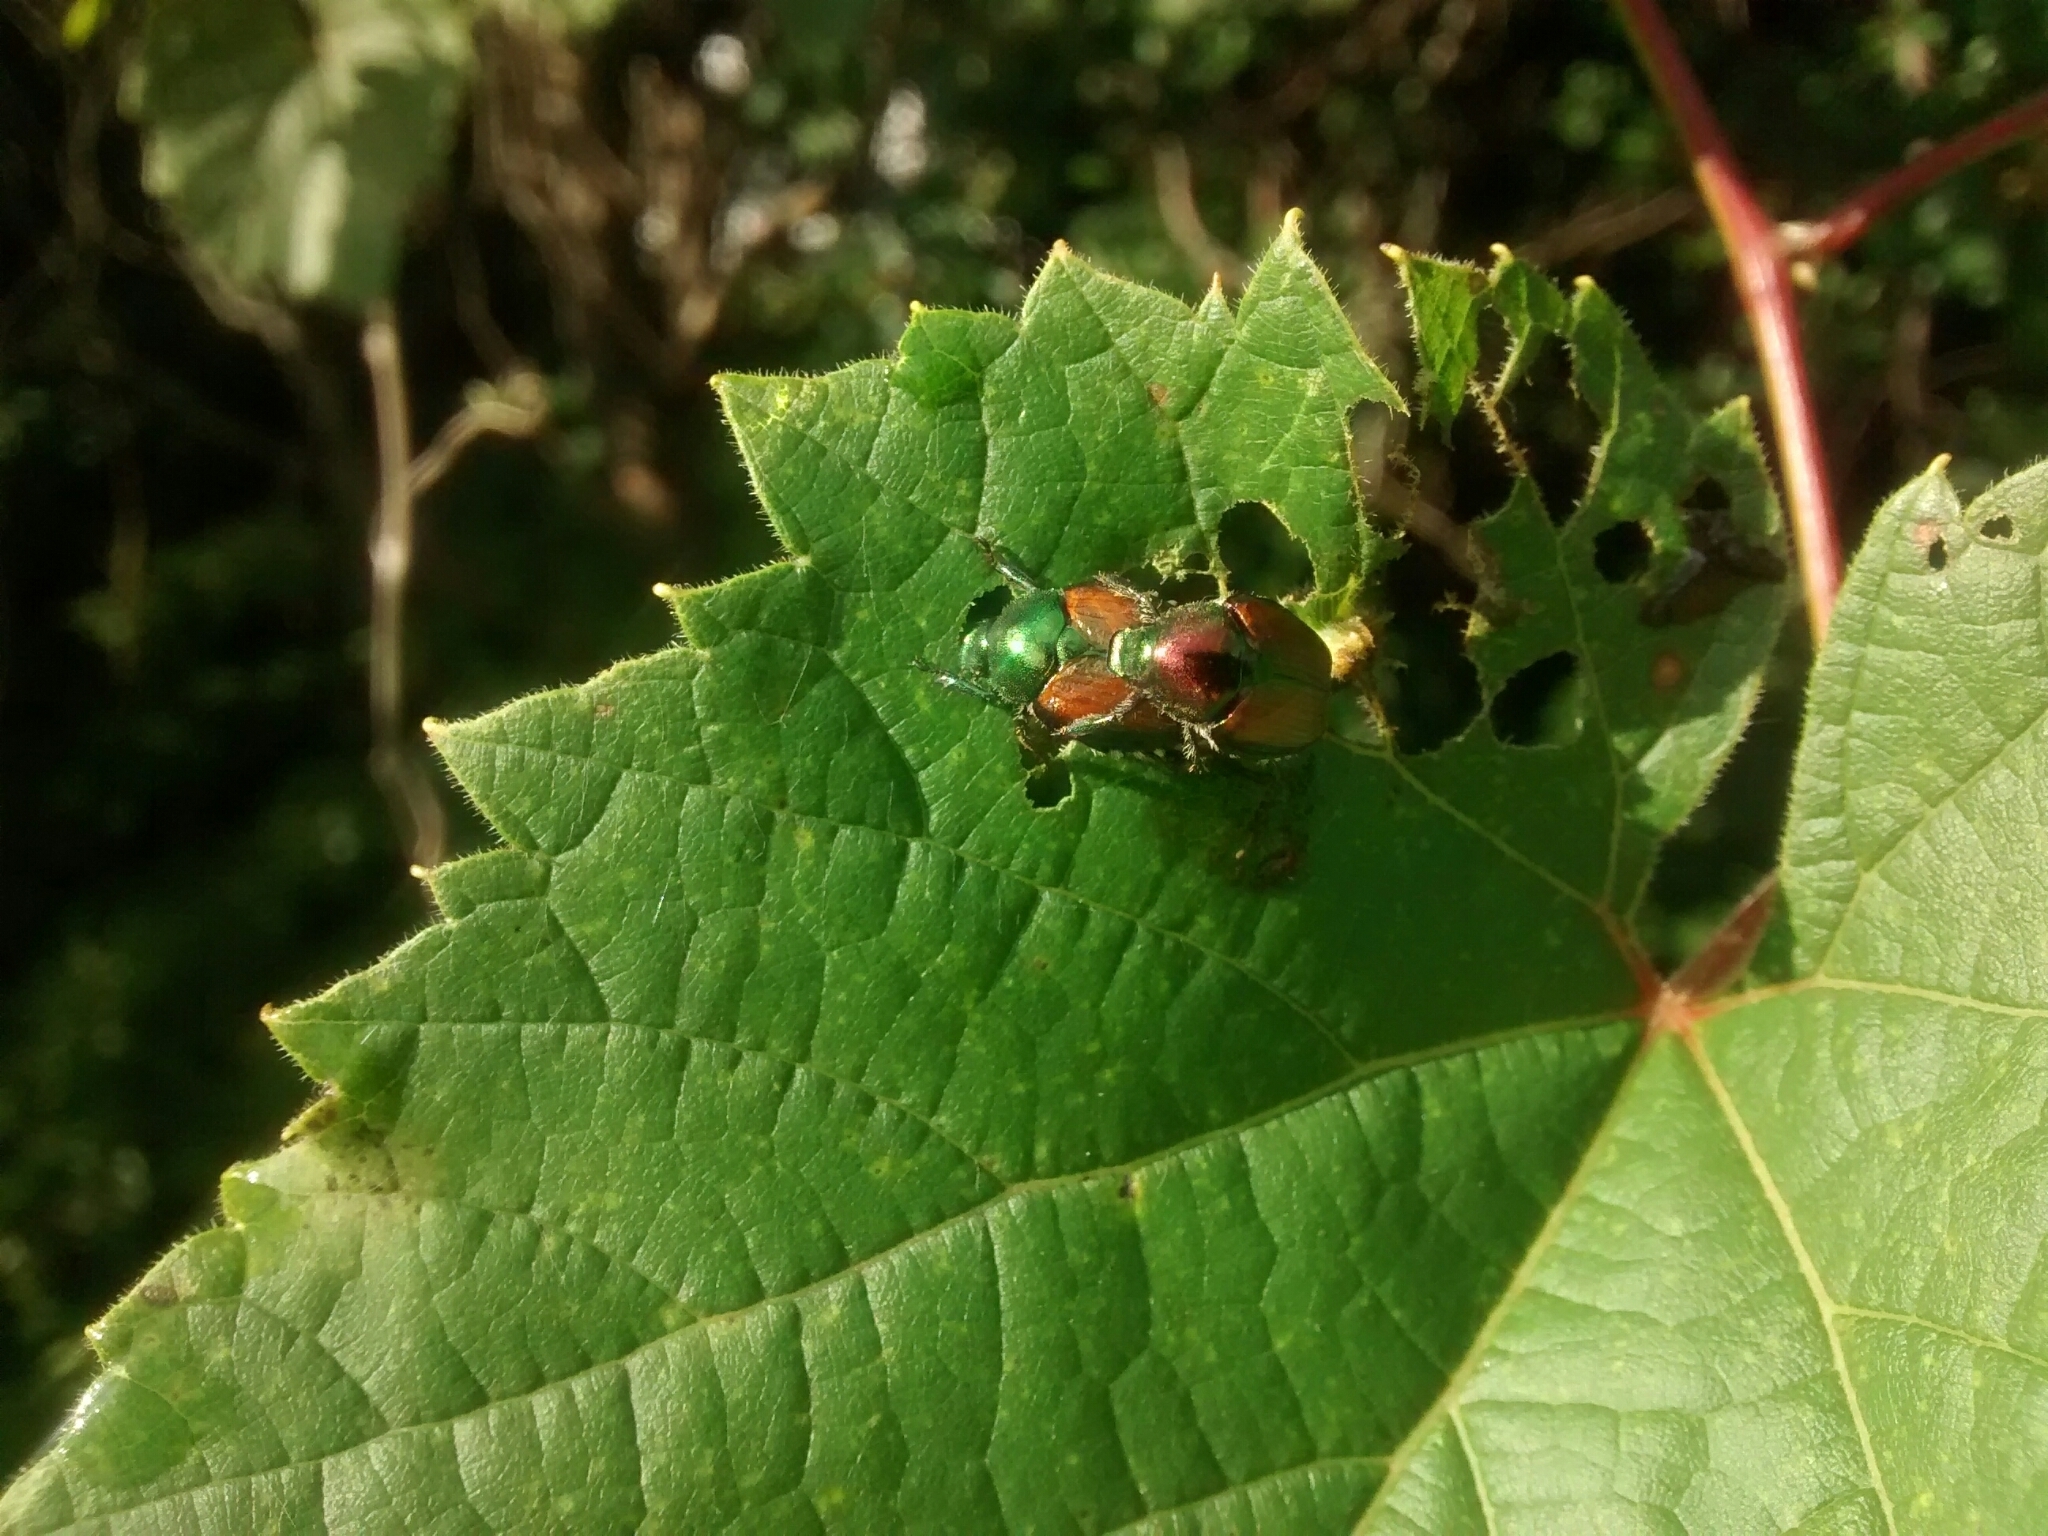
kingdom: Animalia
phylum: Arthropoda
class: Insecta
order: Coleoptera
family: Scarabaeidae
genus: Popillia
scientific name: Popillia japonica
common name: Japanese beetle
